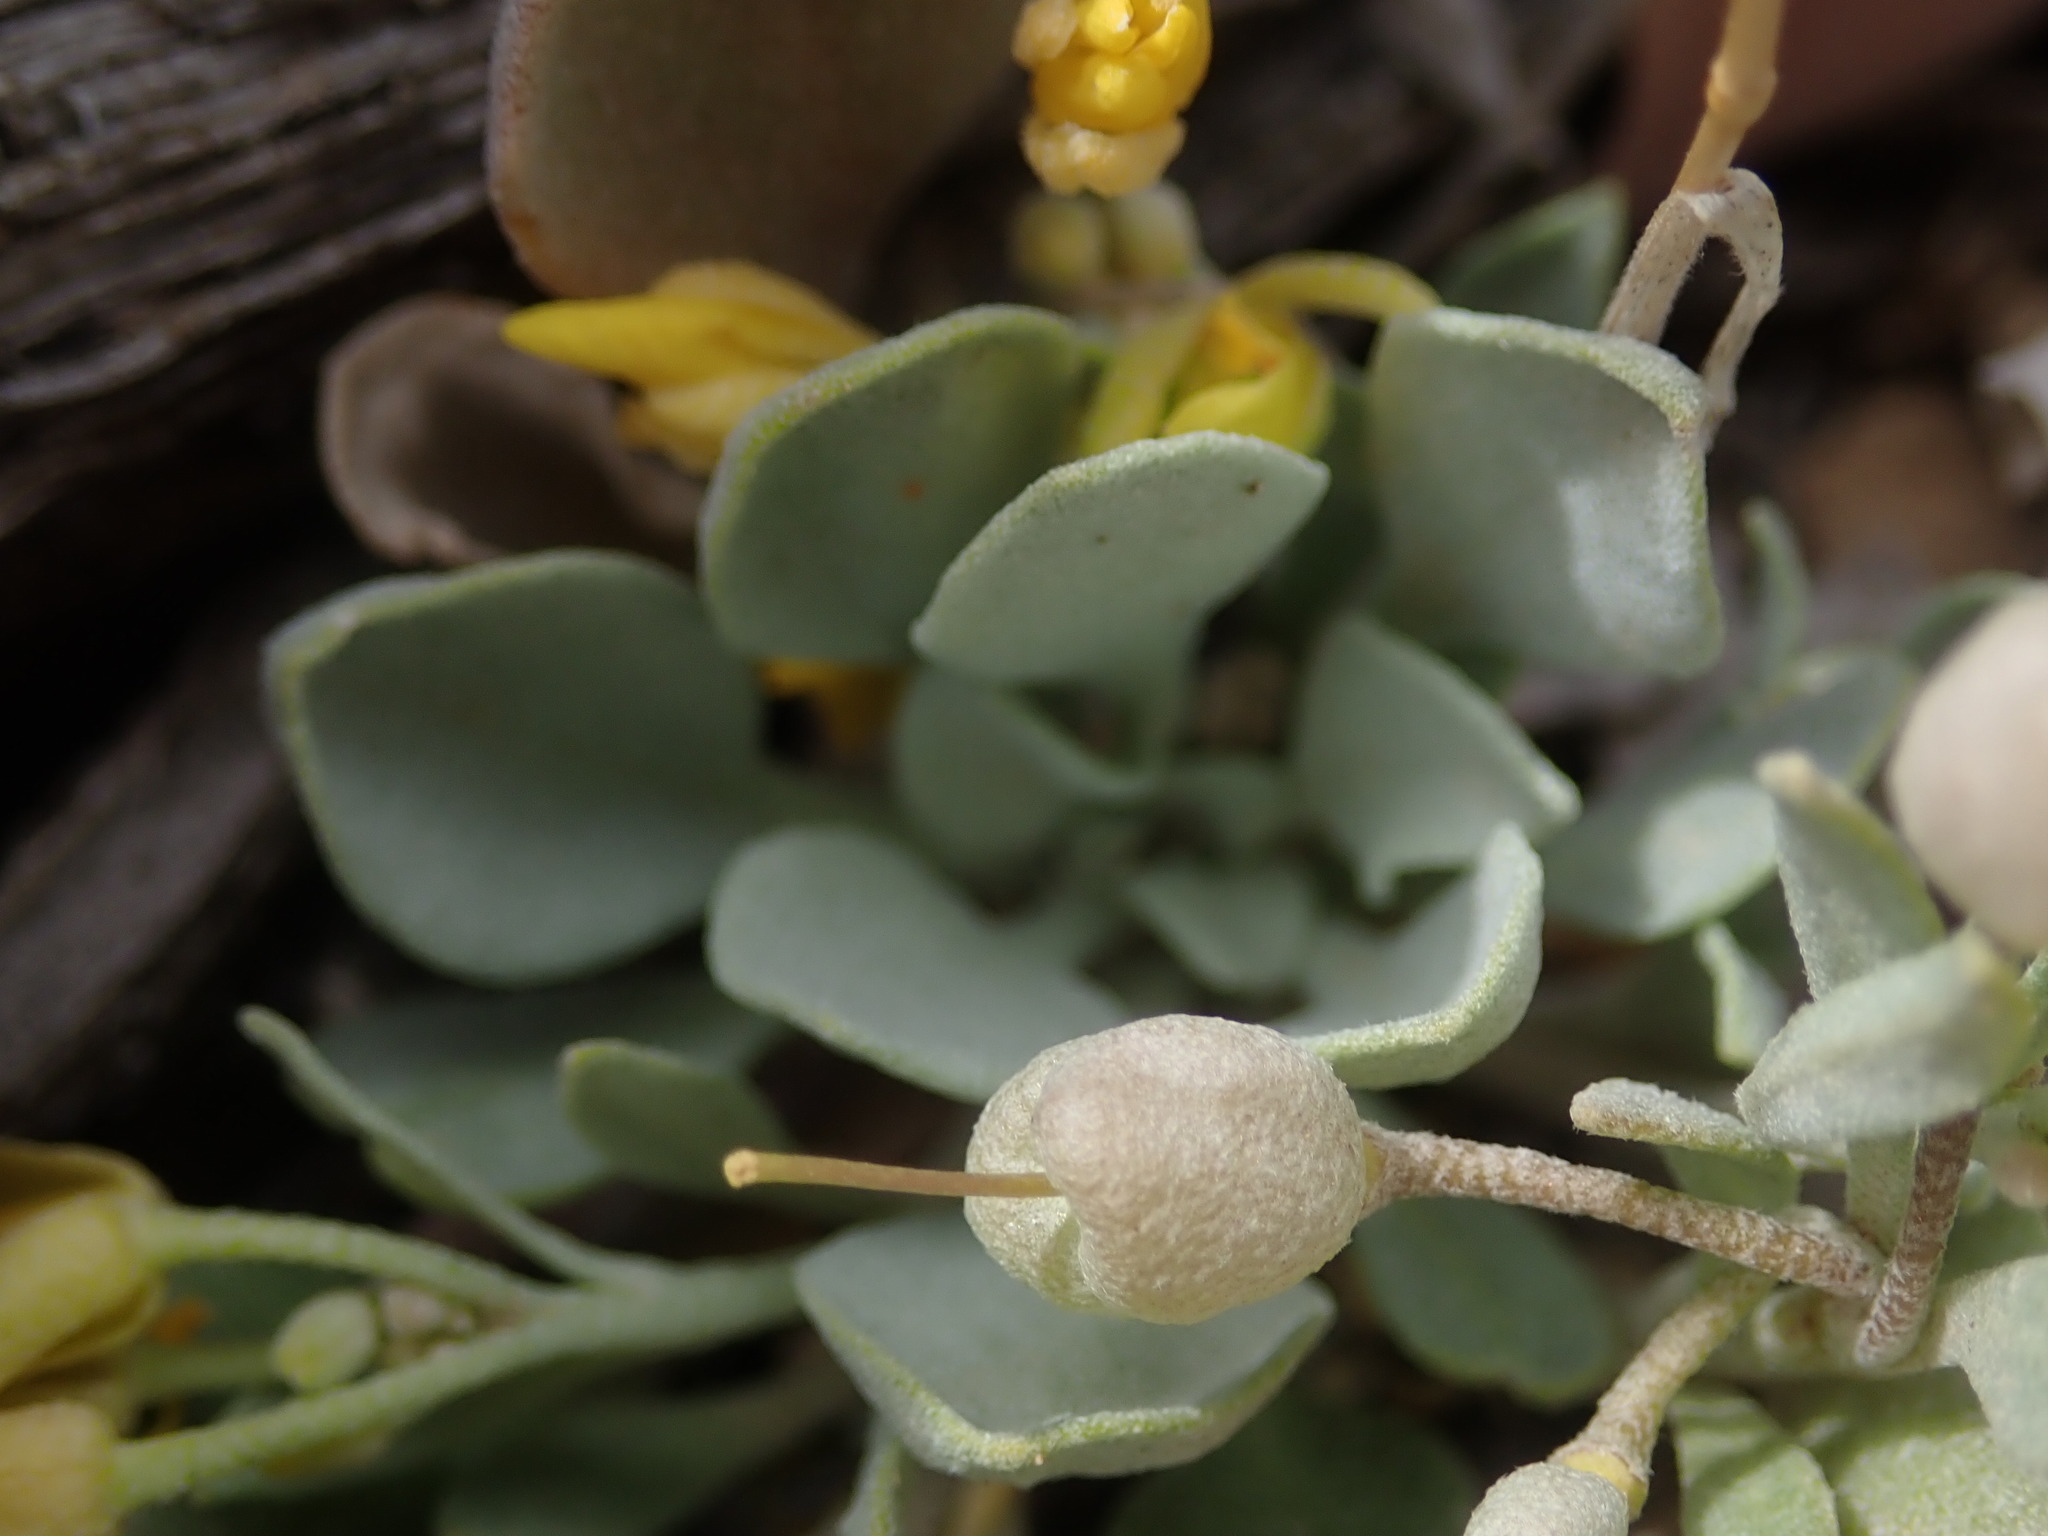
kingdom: Plantae
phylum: Tracheophyta
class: Magnoliopsida
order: Brassicales
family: Brassicaceae
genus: Physaria
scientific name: Physaria acutifolia
